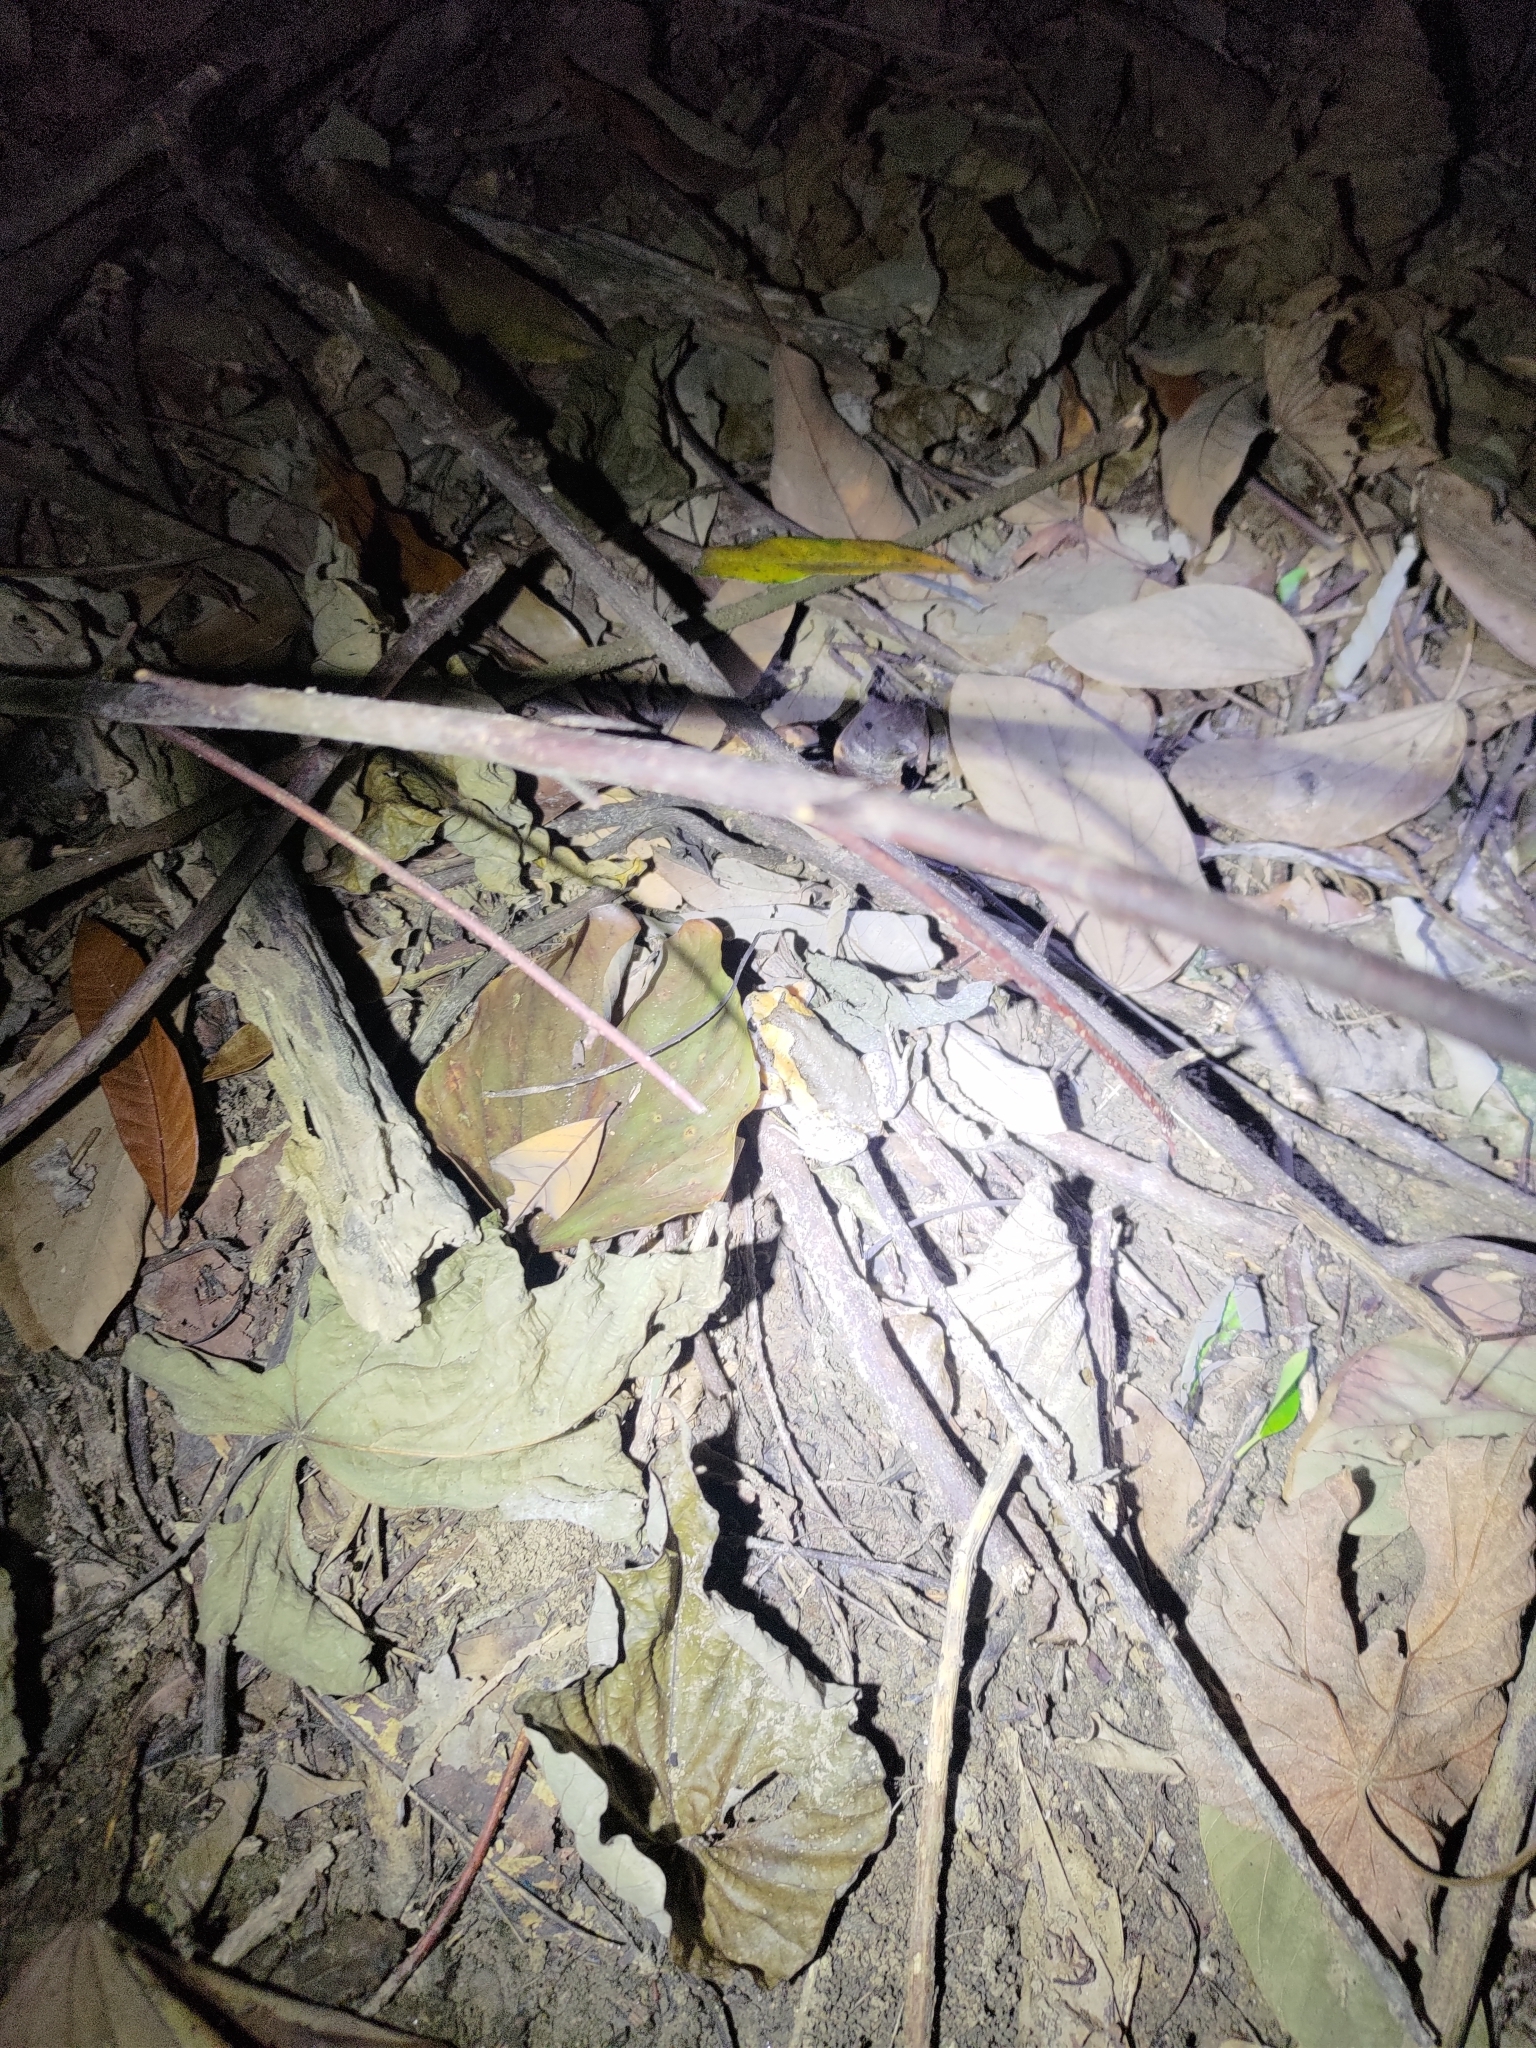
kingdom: Animalia
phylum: Chordata
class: Amphibia
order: Anura
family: Microhylidae
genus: Kaloula
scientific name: Kaloula pulchra
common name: Common,banded bullfrog
